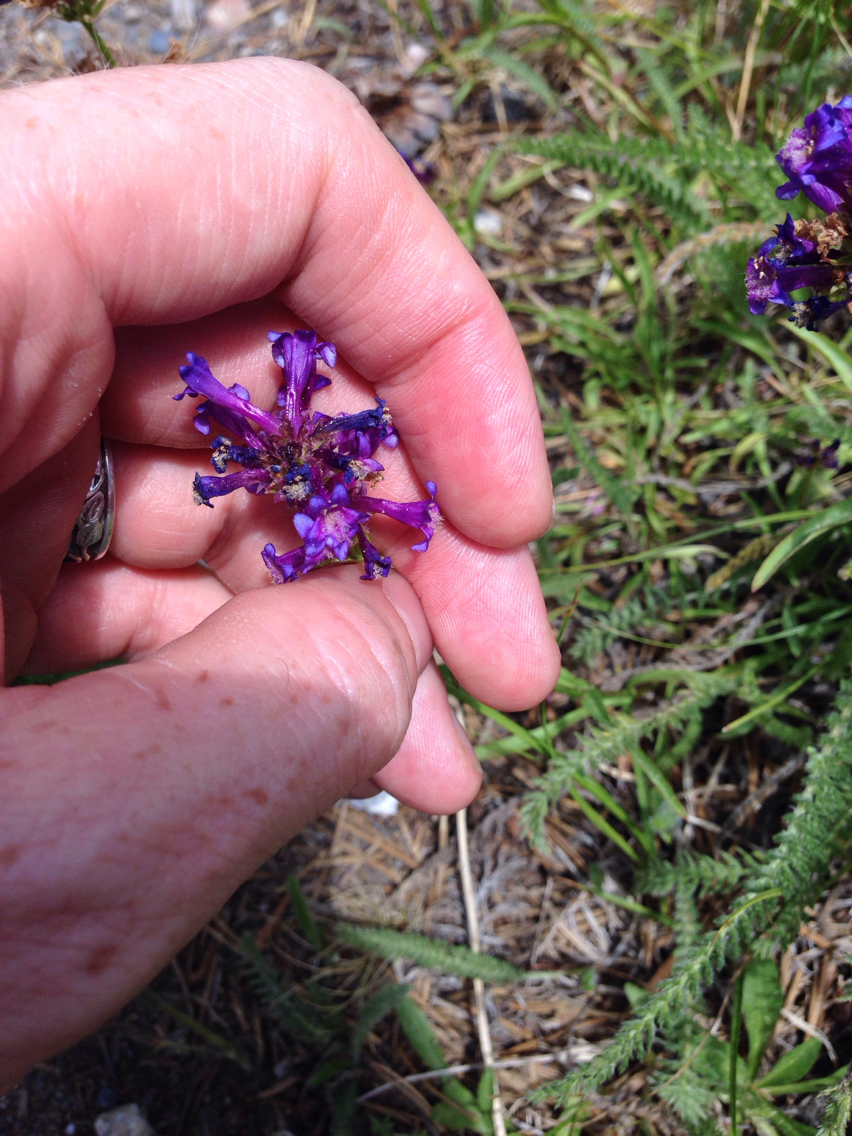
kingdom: Plantae
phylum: Tracheophyta
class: Magnoliopsida
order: Lamiales
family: Plantaginaceae
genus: Penstemon
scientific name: Penstemon procerus
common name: Small-flower penstemon
